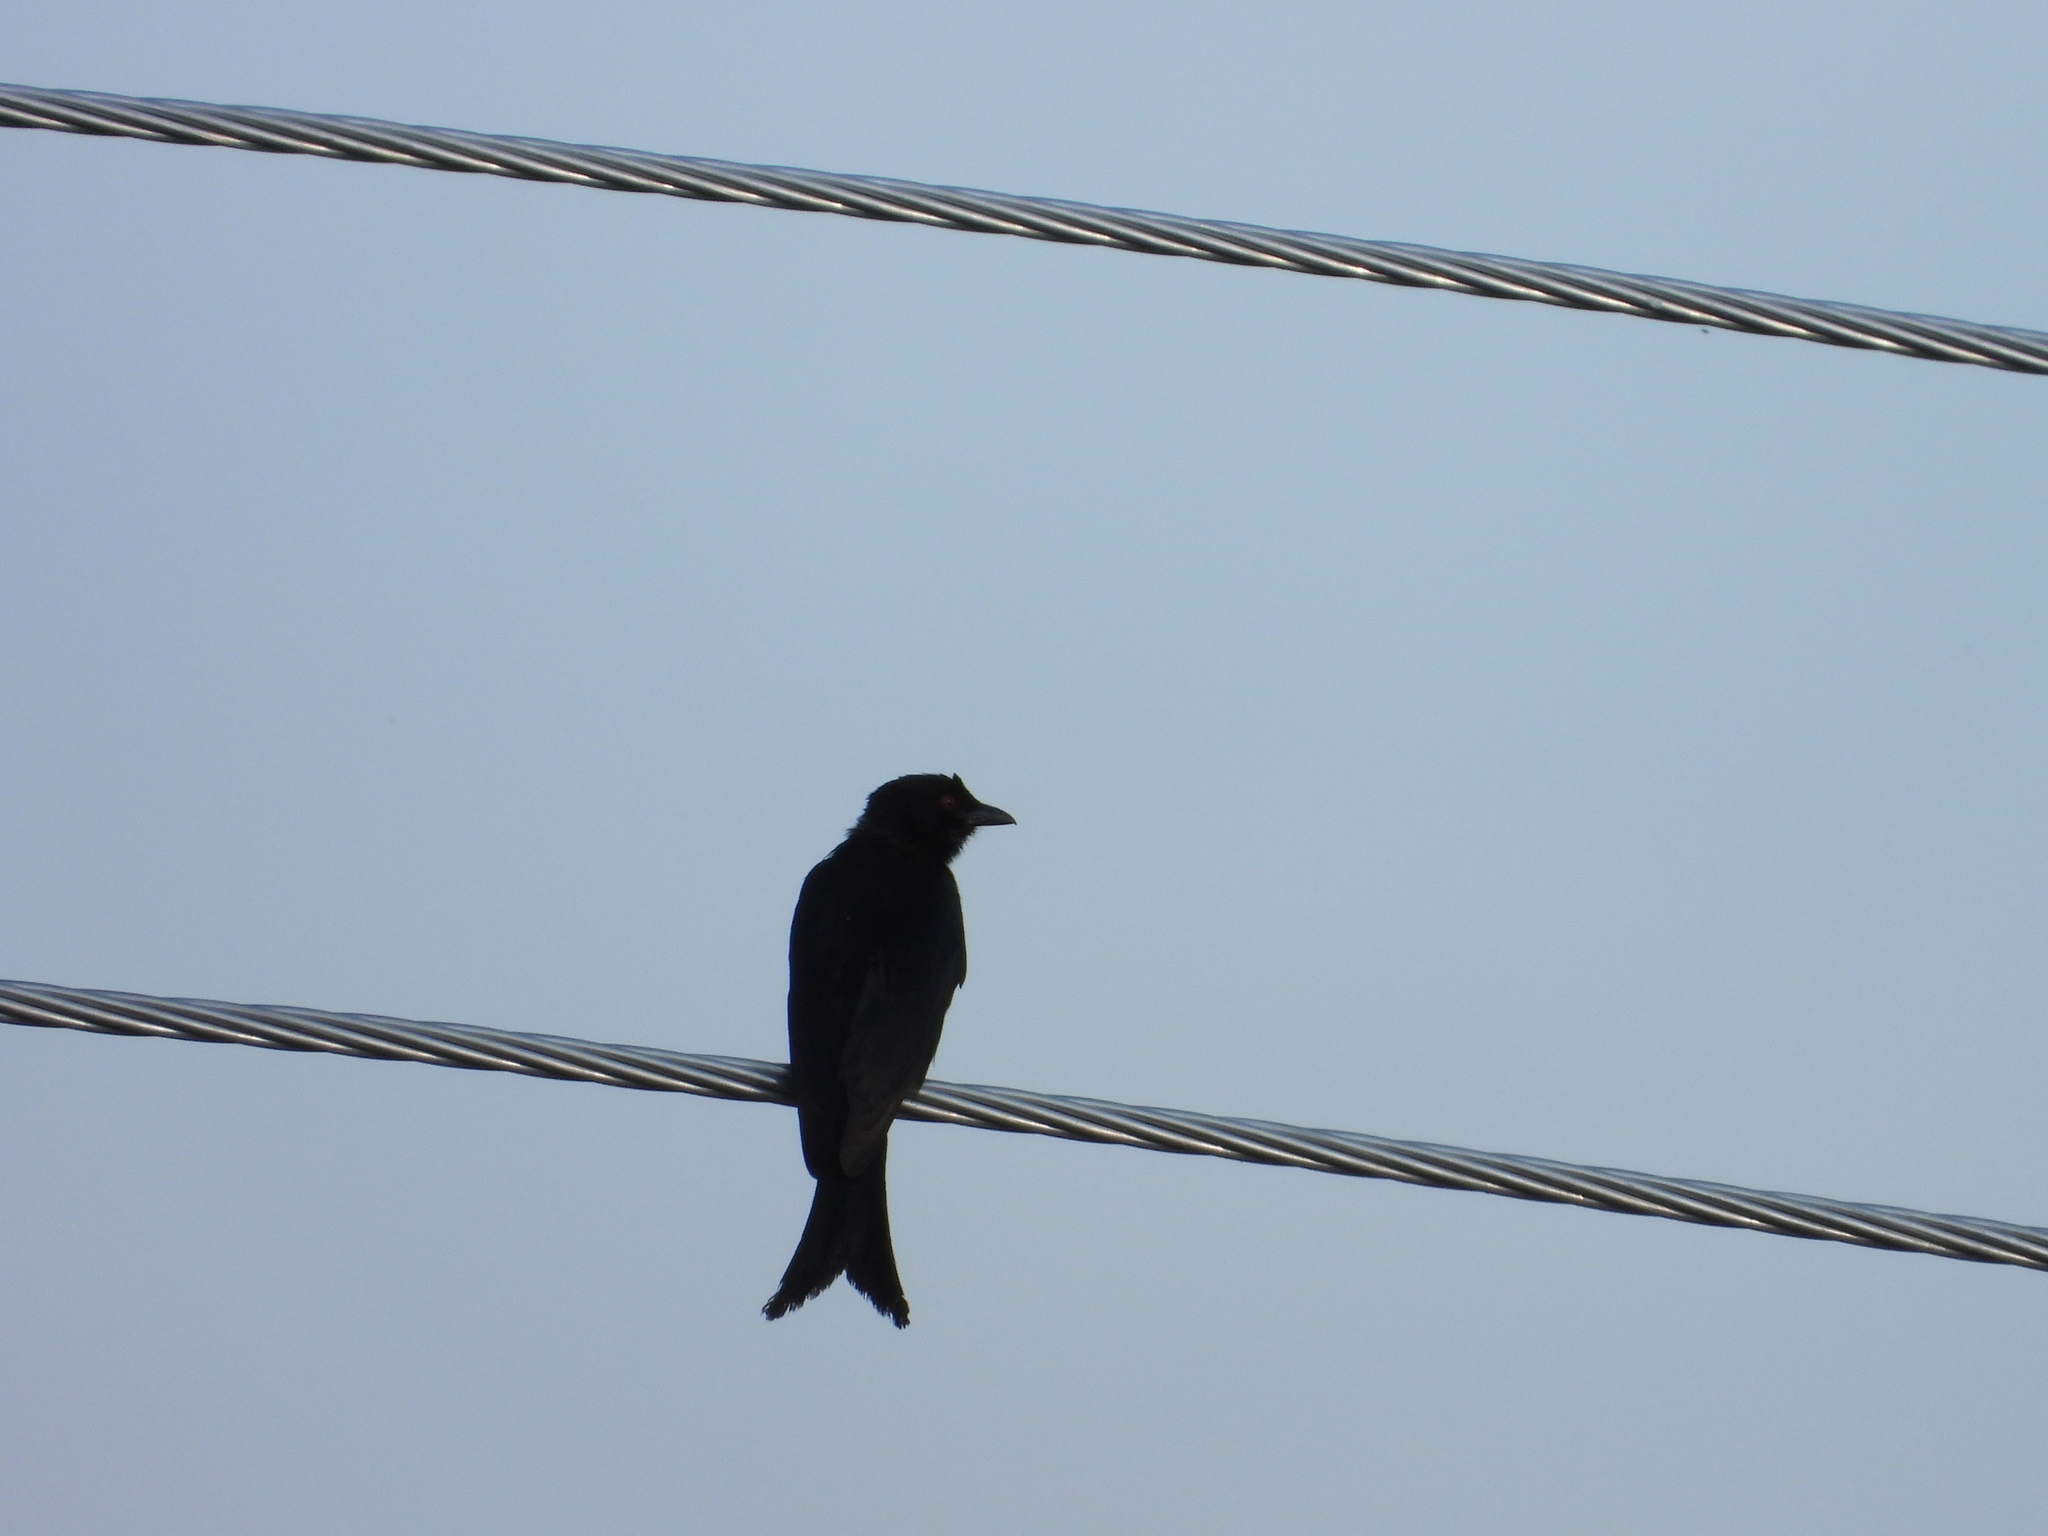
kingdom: Animalia
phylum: Chordata
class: Aves
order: Passeriformes
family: Dicruridae
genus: Dicrurus
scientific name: Dicrurus adsimilis
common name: Fork-tailed drongo
